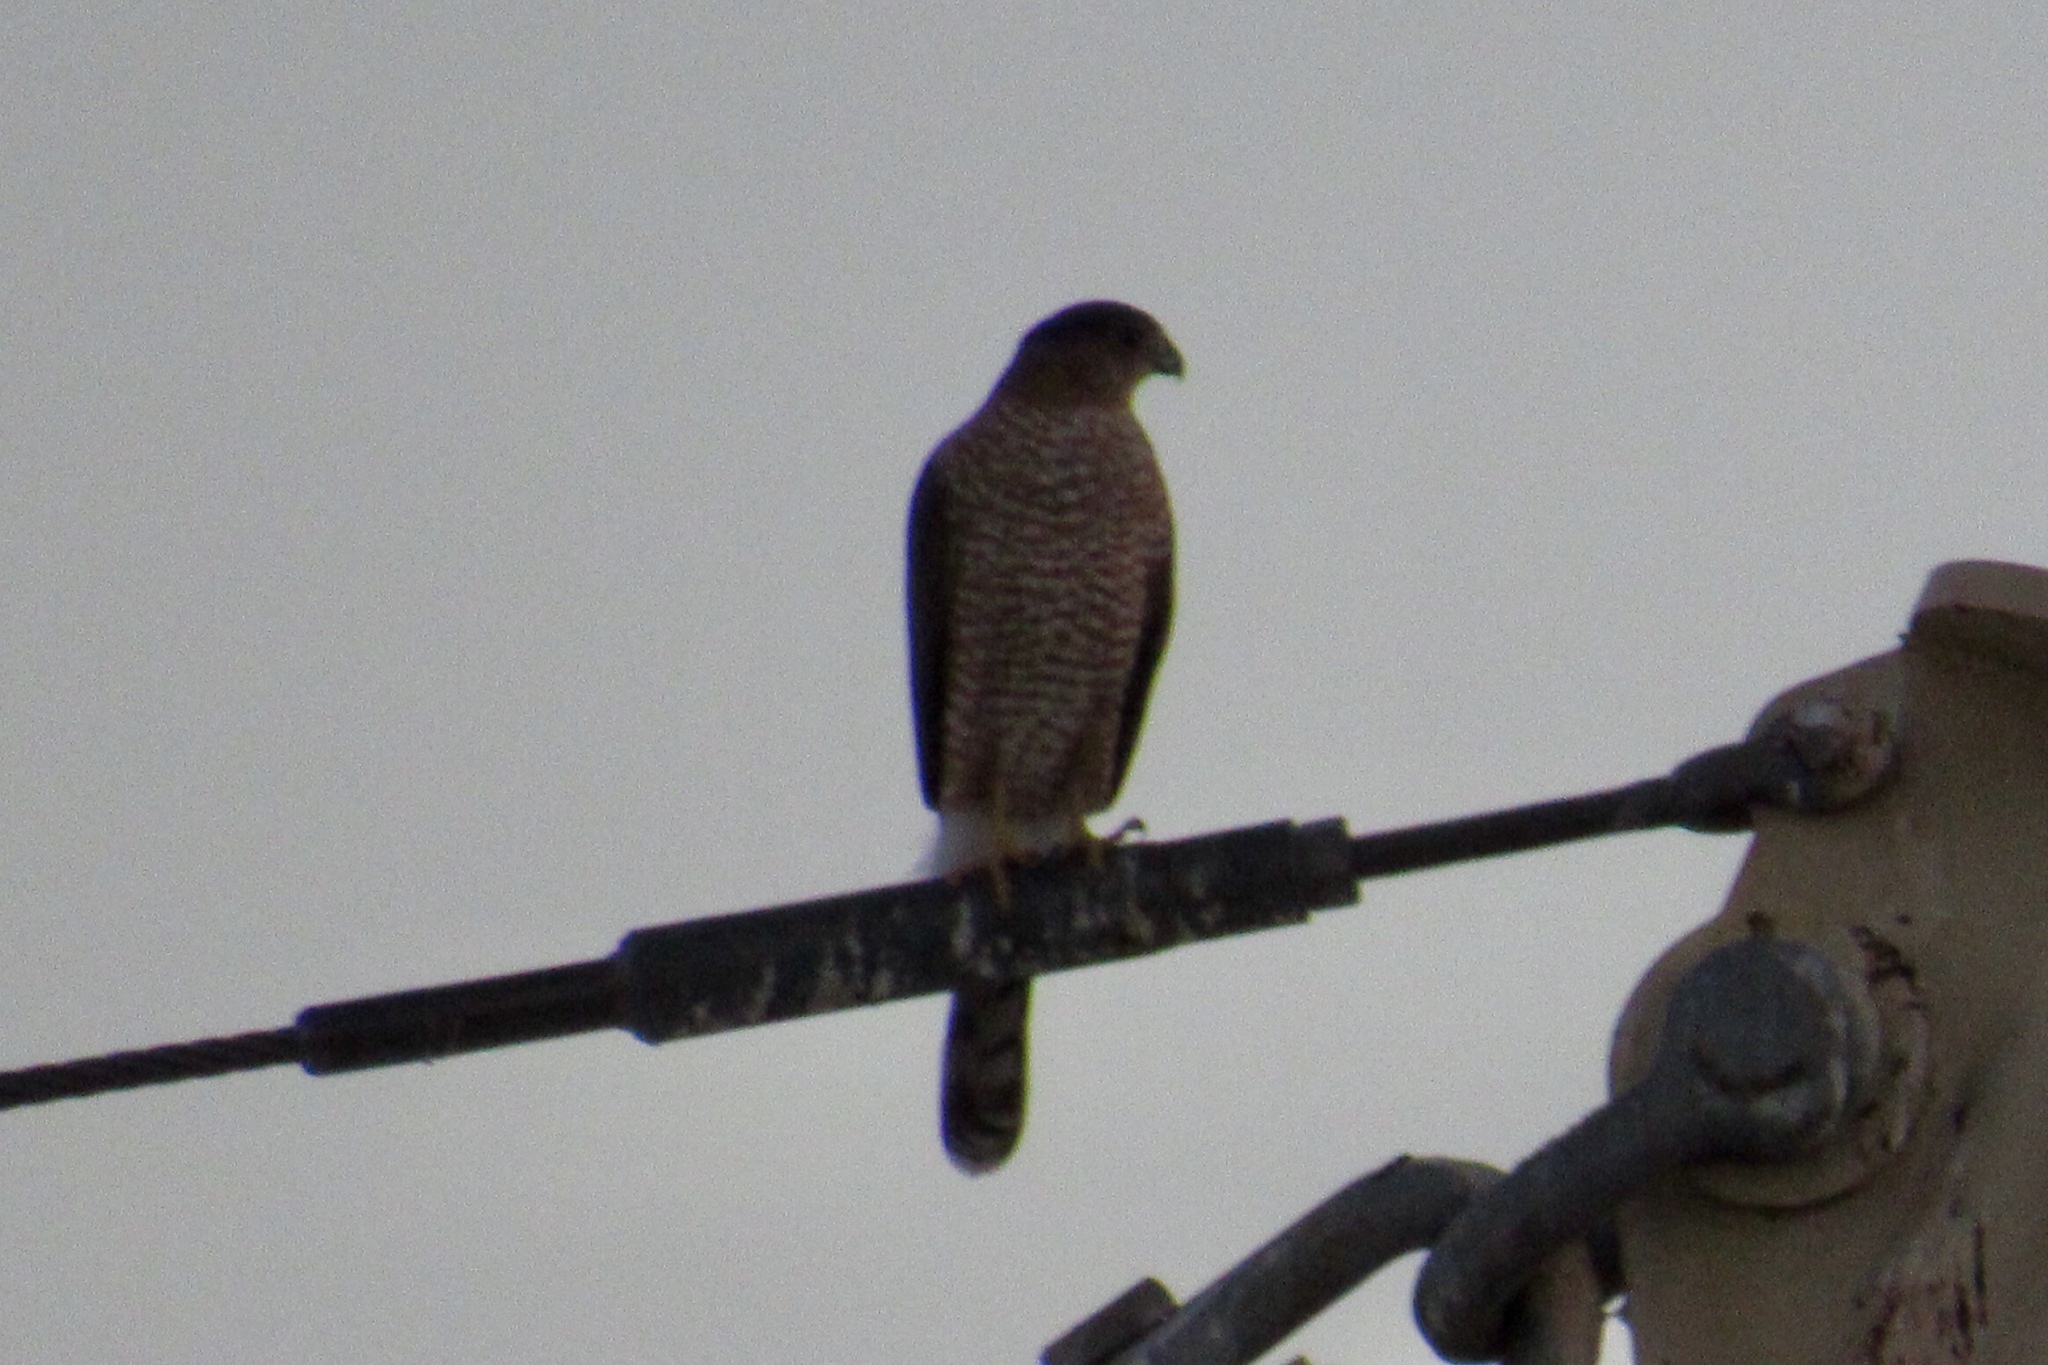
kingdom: Animalia
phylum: Chordata
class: Aves
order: Accipitriformes
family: Accipitridae
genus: Accipiter
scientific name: Accipiter cooperii
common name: Cooper's hawk
